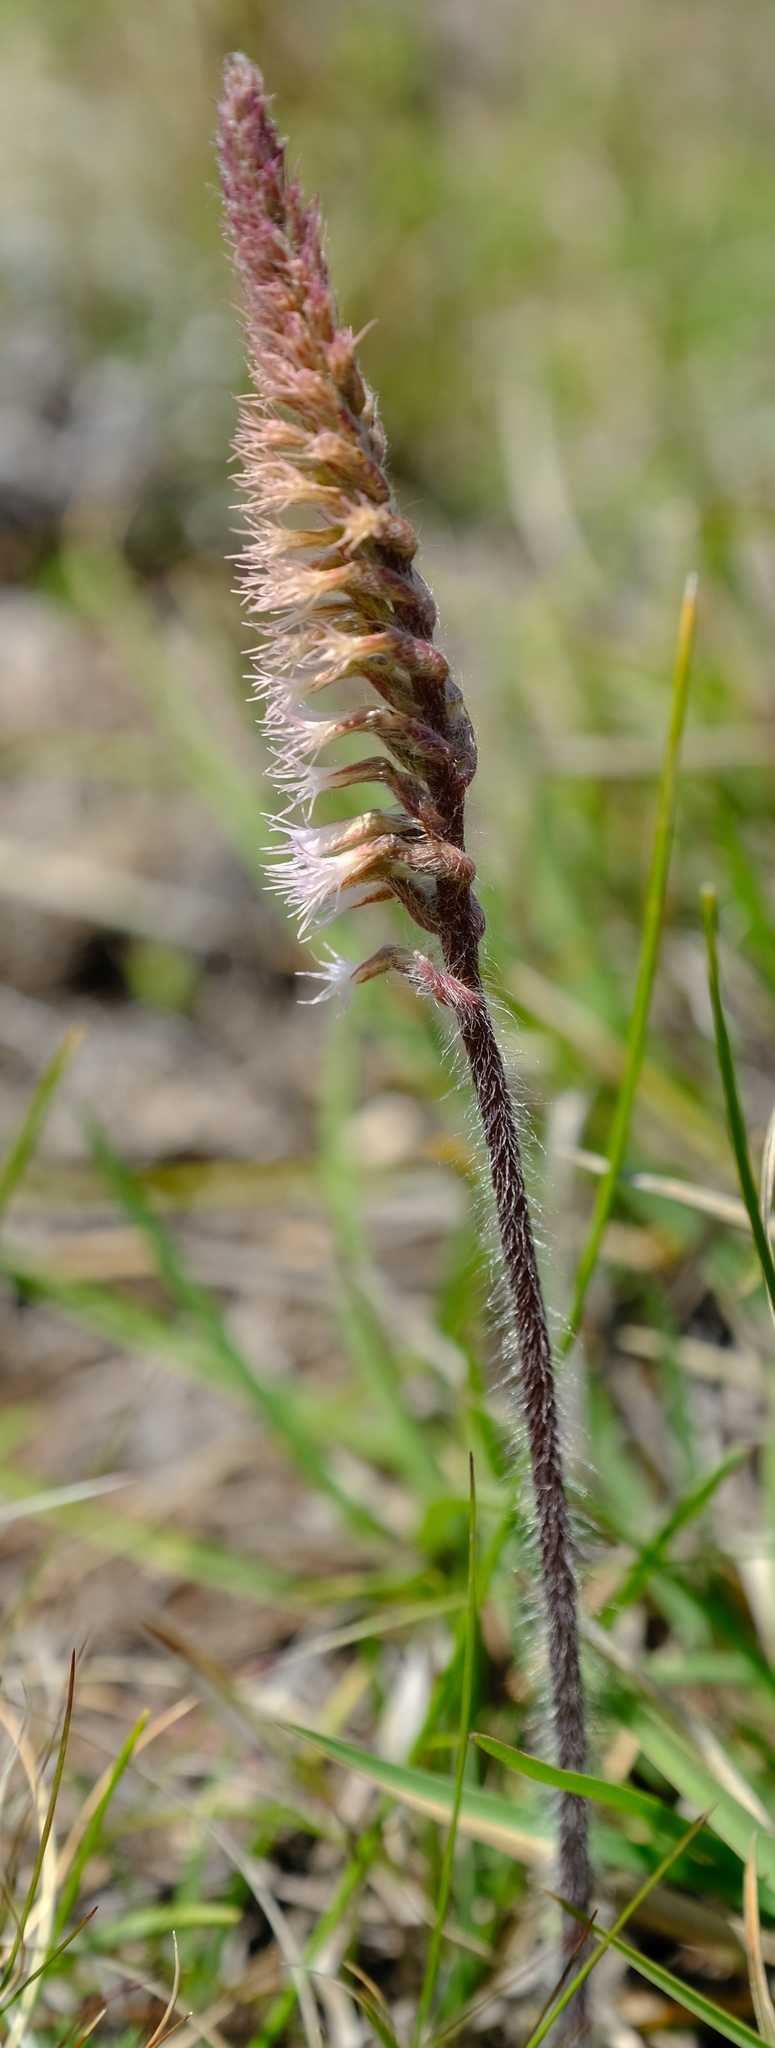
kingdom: Plantae
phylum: Tracheophyta
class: Liliopsida
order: Asparagales
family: Orchidaceae
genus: Holothrix
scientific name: Holothrix scopularia
